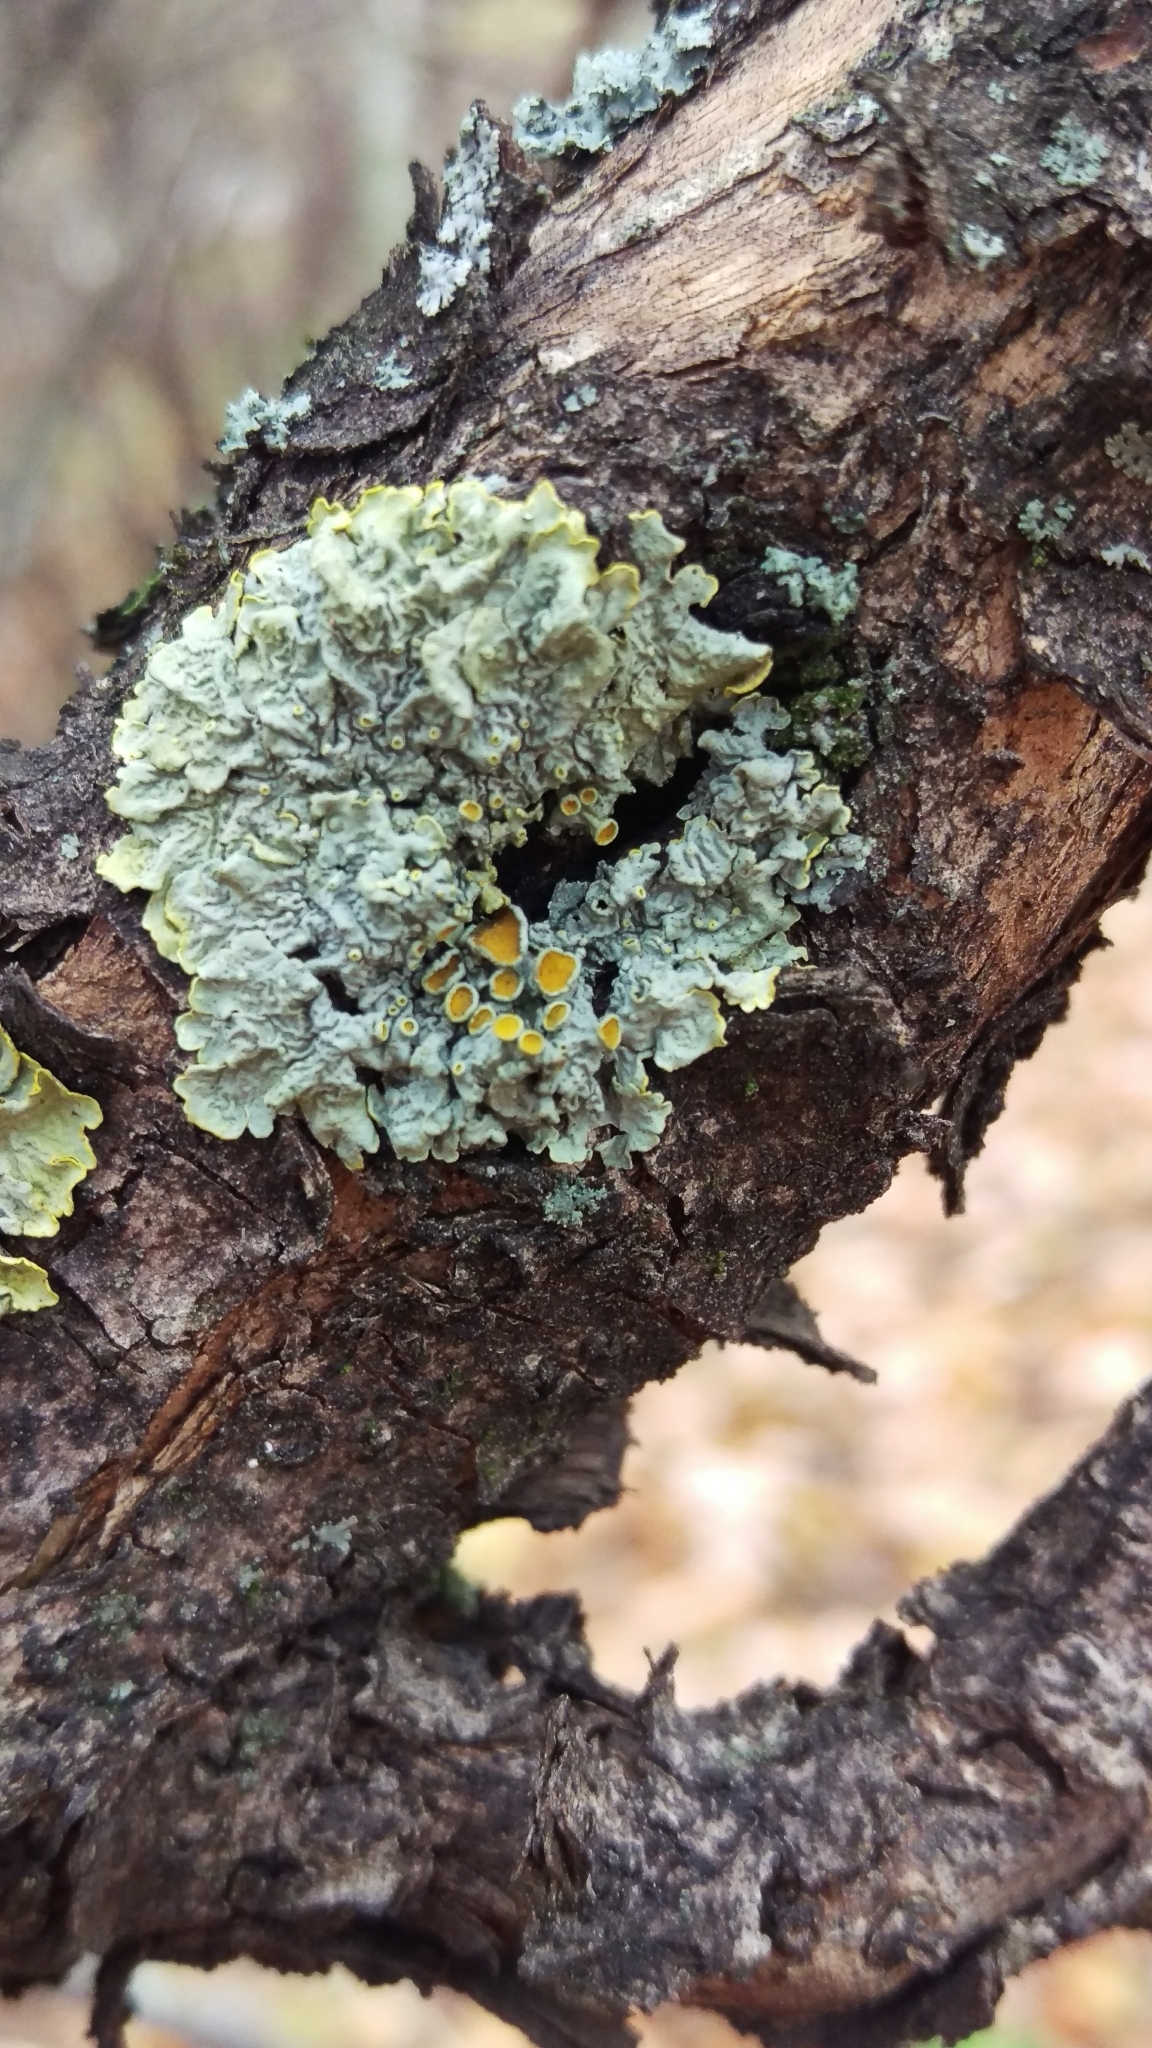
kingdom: Fungi
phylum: Ascomycota
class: Lecanoromycetes
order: Teloschistales
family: Teloschistaceae
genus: Xanthoria
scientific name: Xanthoria parietina
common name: Common orange lichen
